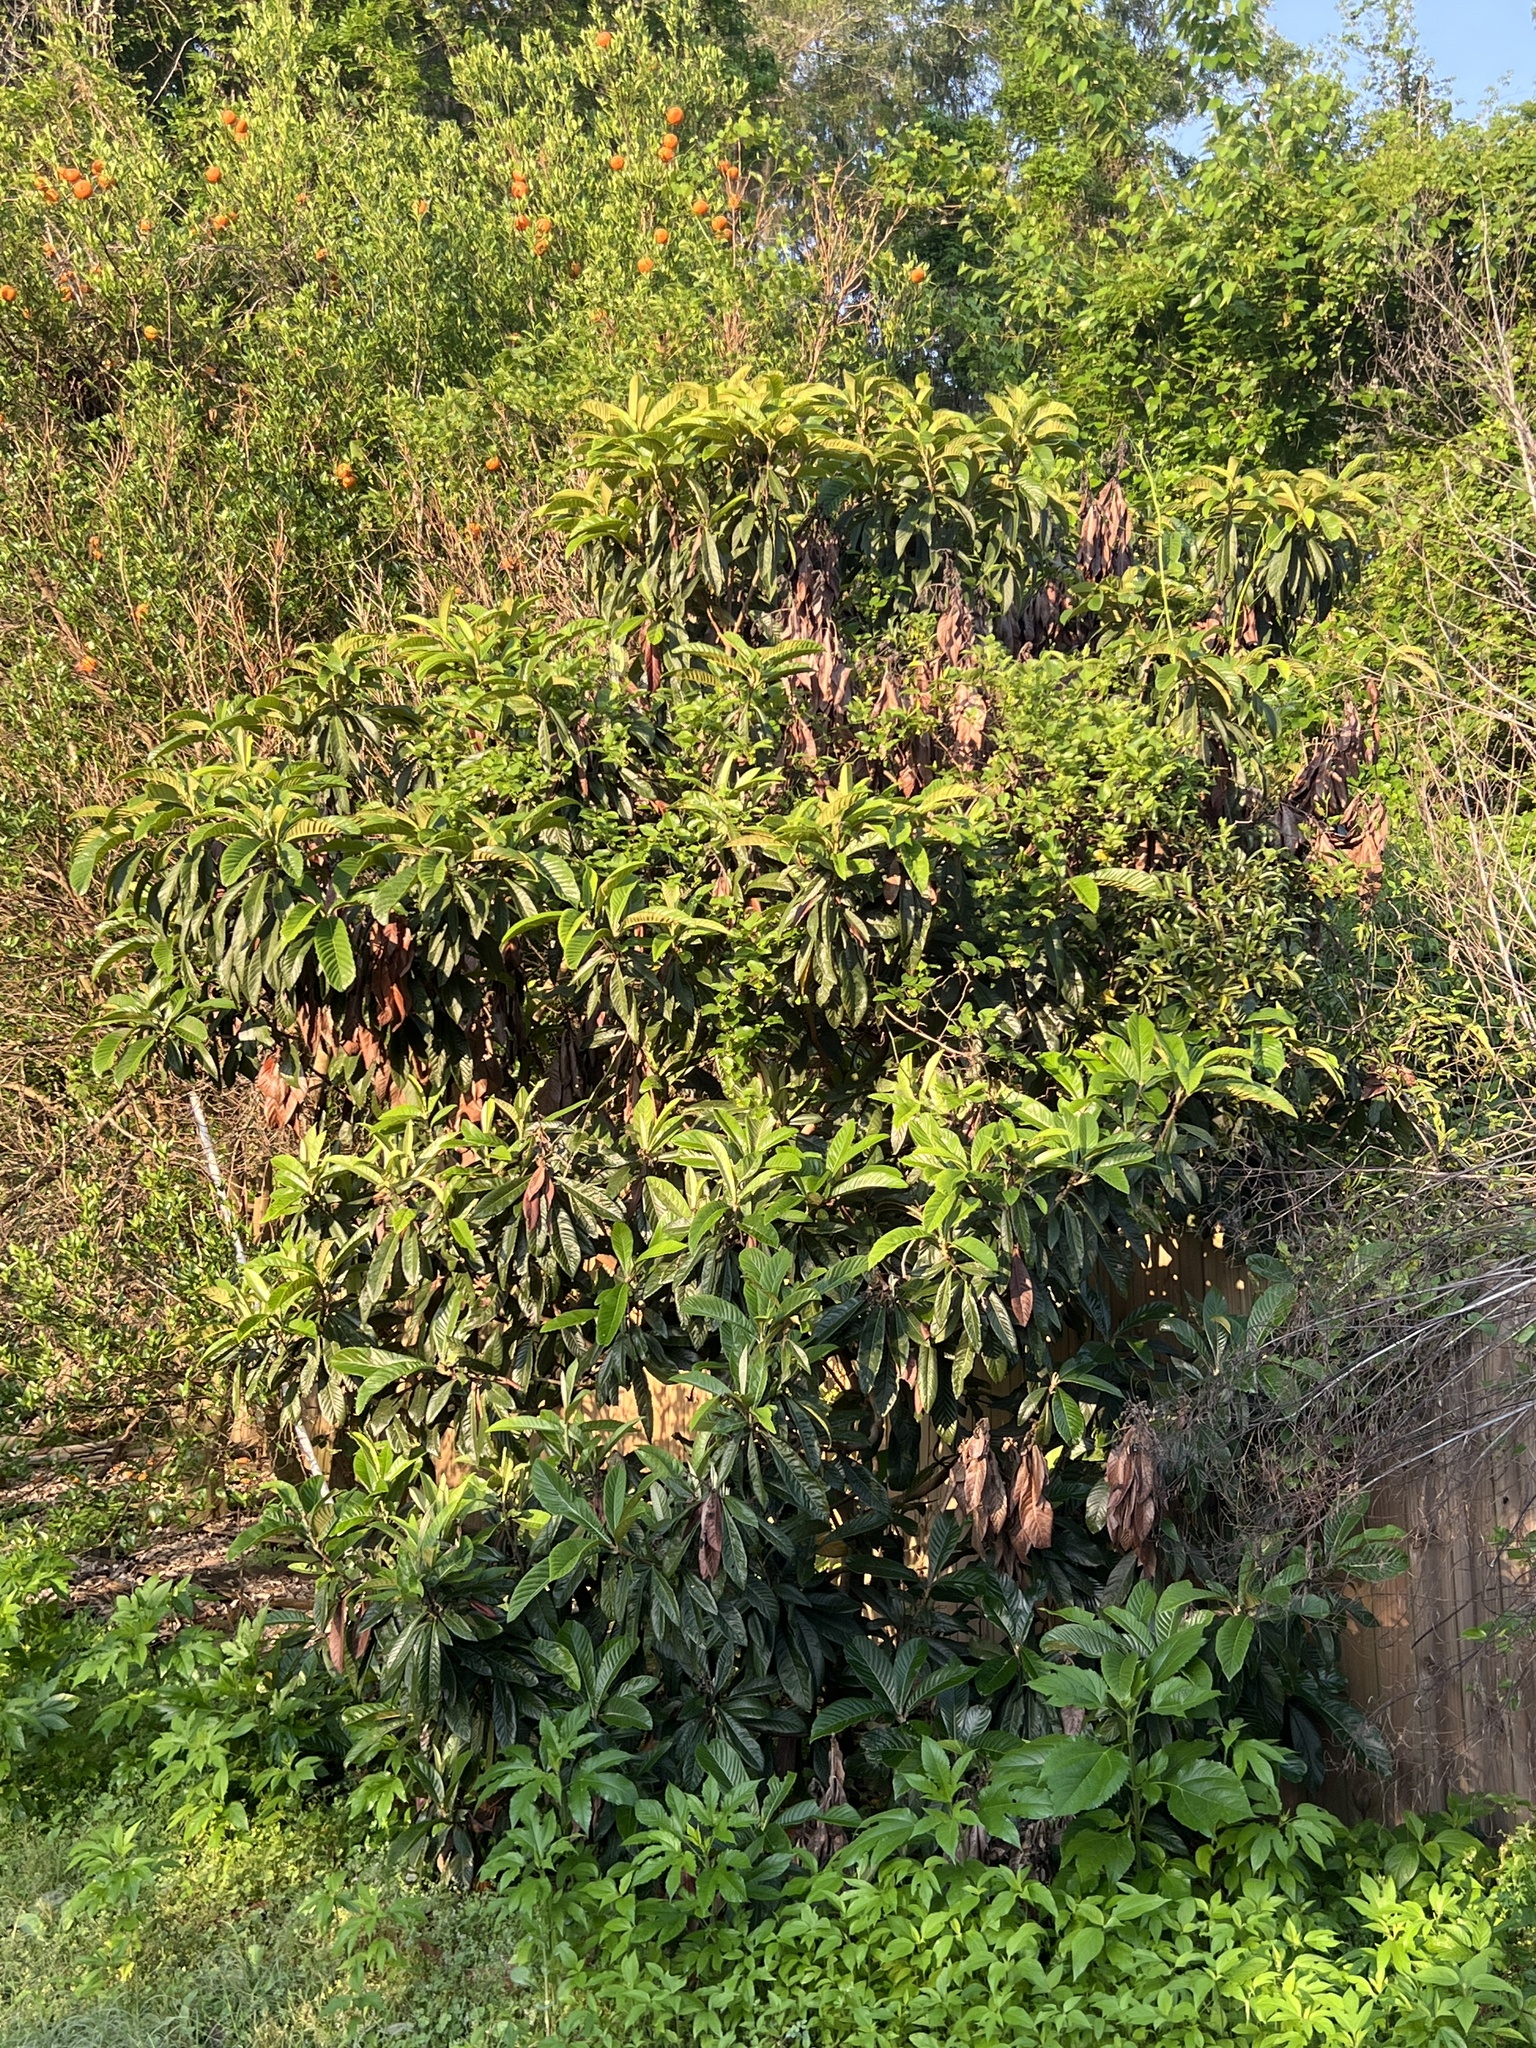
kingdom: Plantae
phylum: Tracheophyta
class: Magnoliopsida
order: Rosales
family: Rosaceae
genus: Rhaphiolepis
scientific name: Rhaphiolepis bibas
